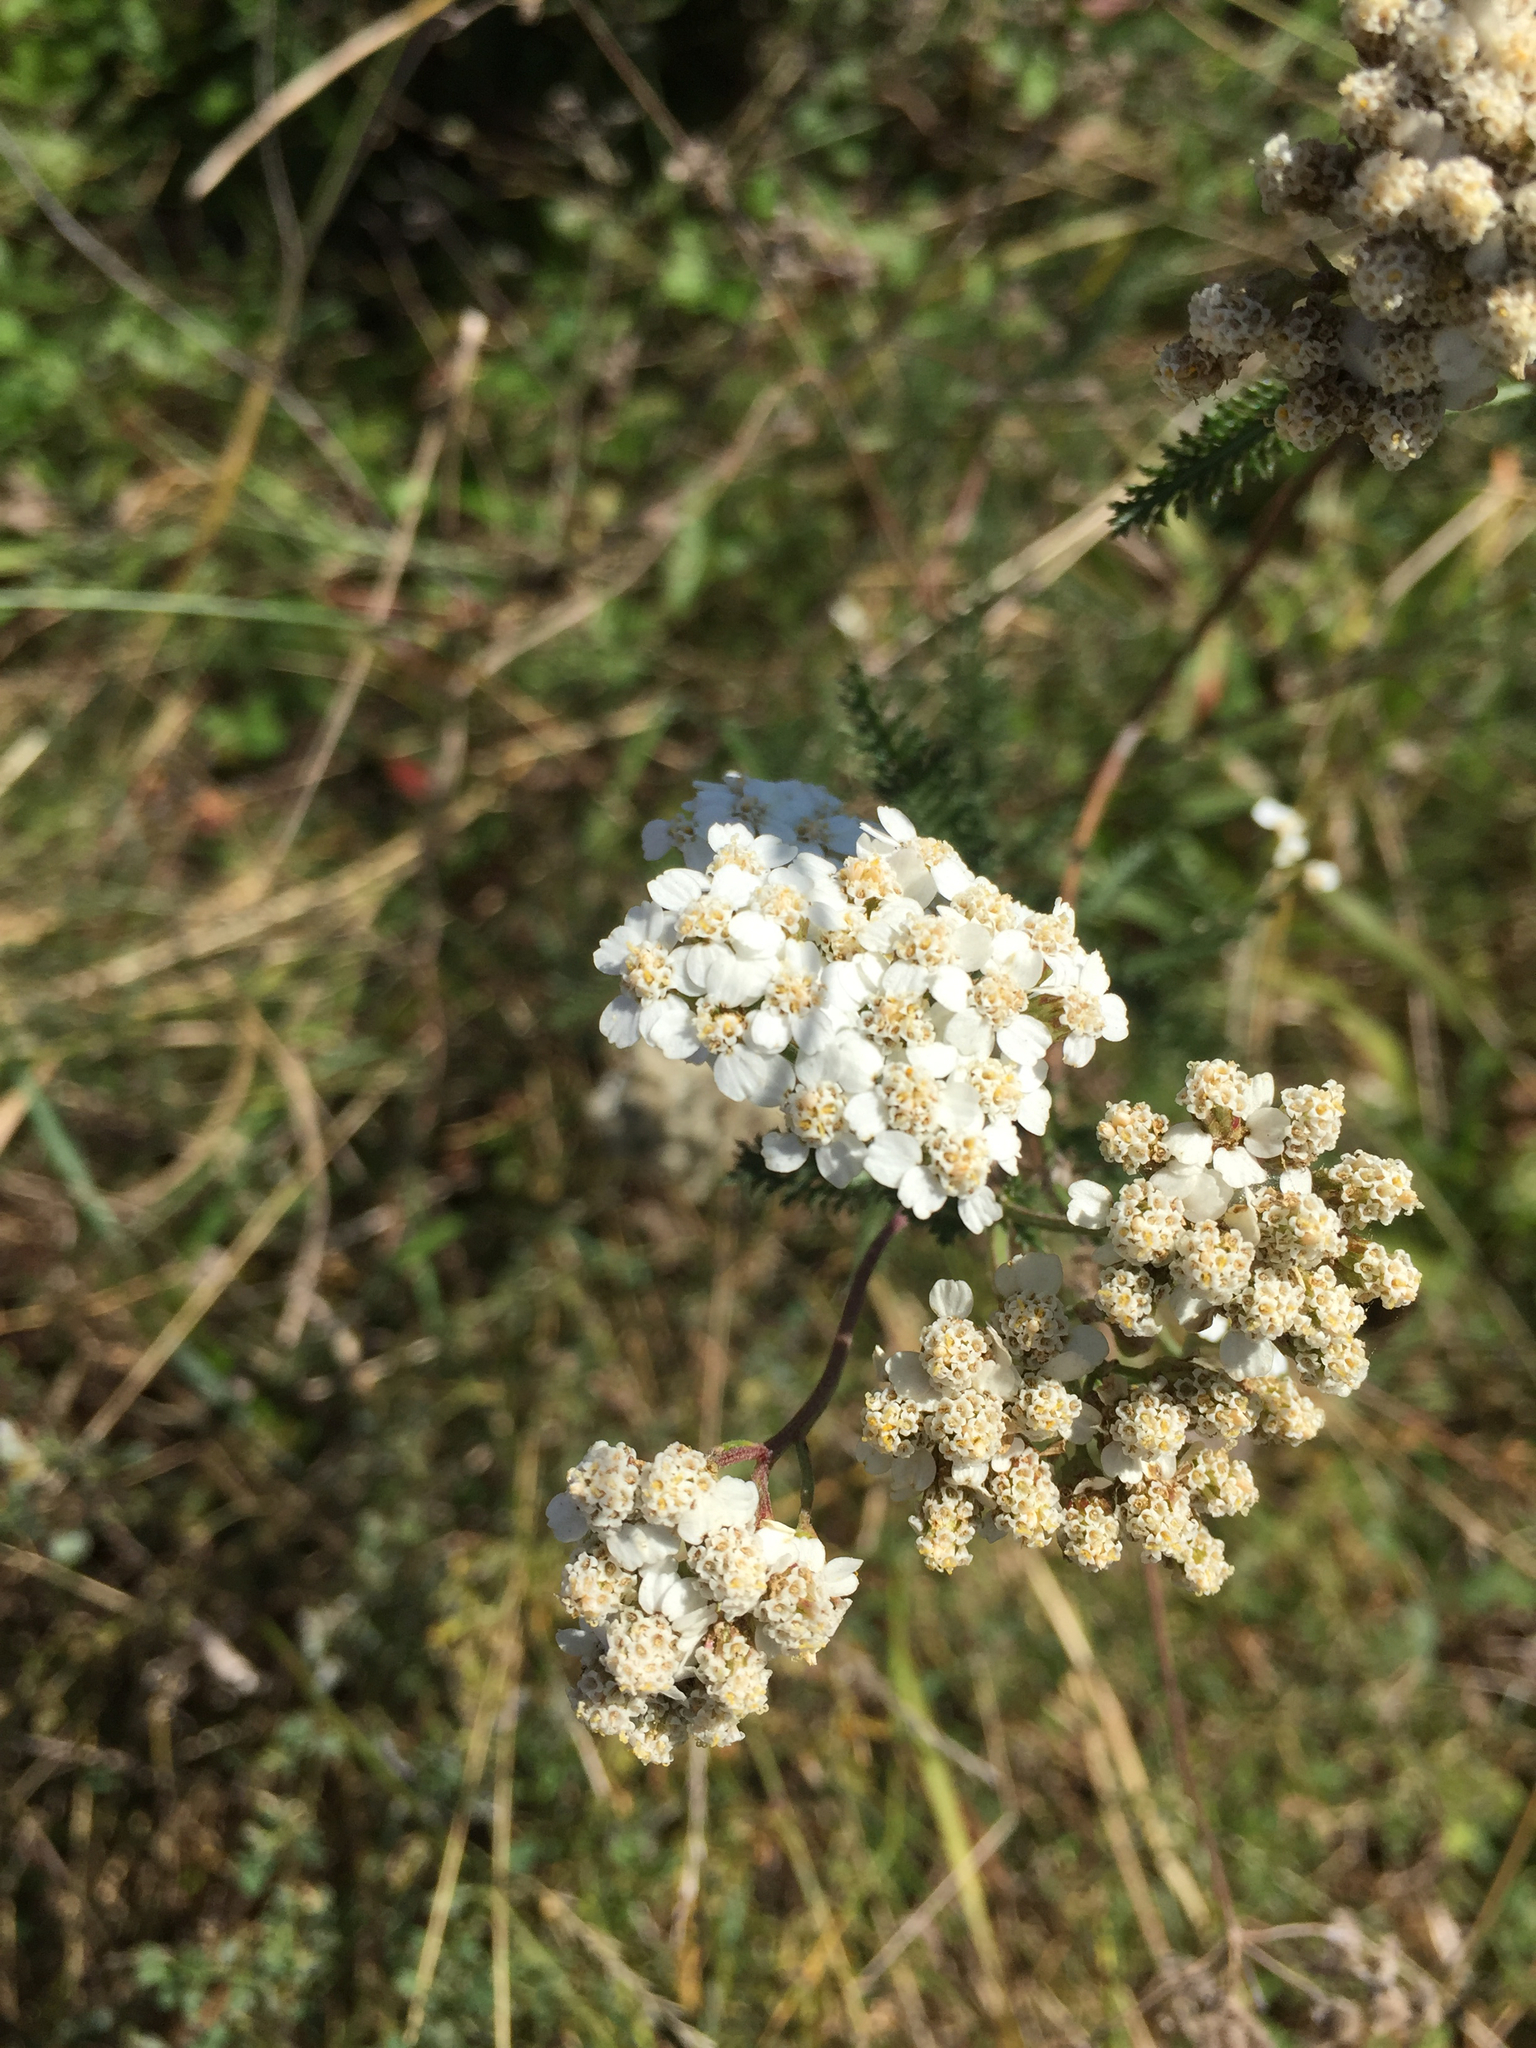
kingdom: Plantae
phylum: Tracheophyta
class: Magnoliopsida
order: Asterales
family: Asteraceae
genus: Achillea
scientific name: Achillea millefolium
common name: Yarrow
